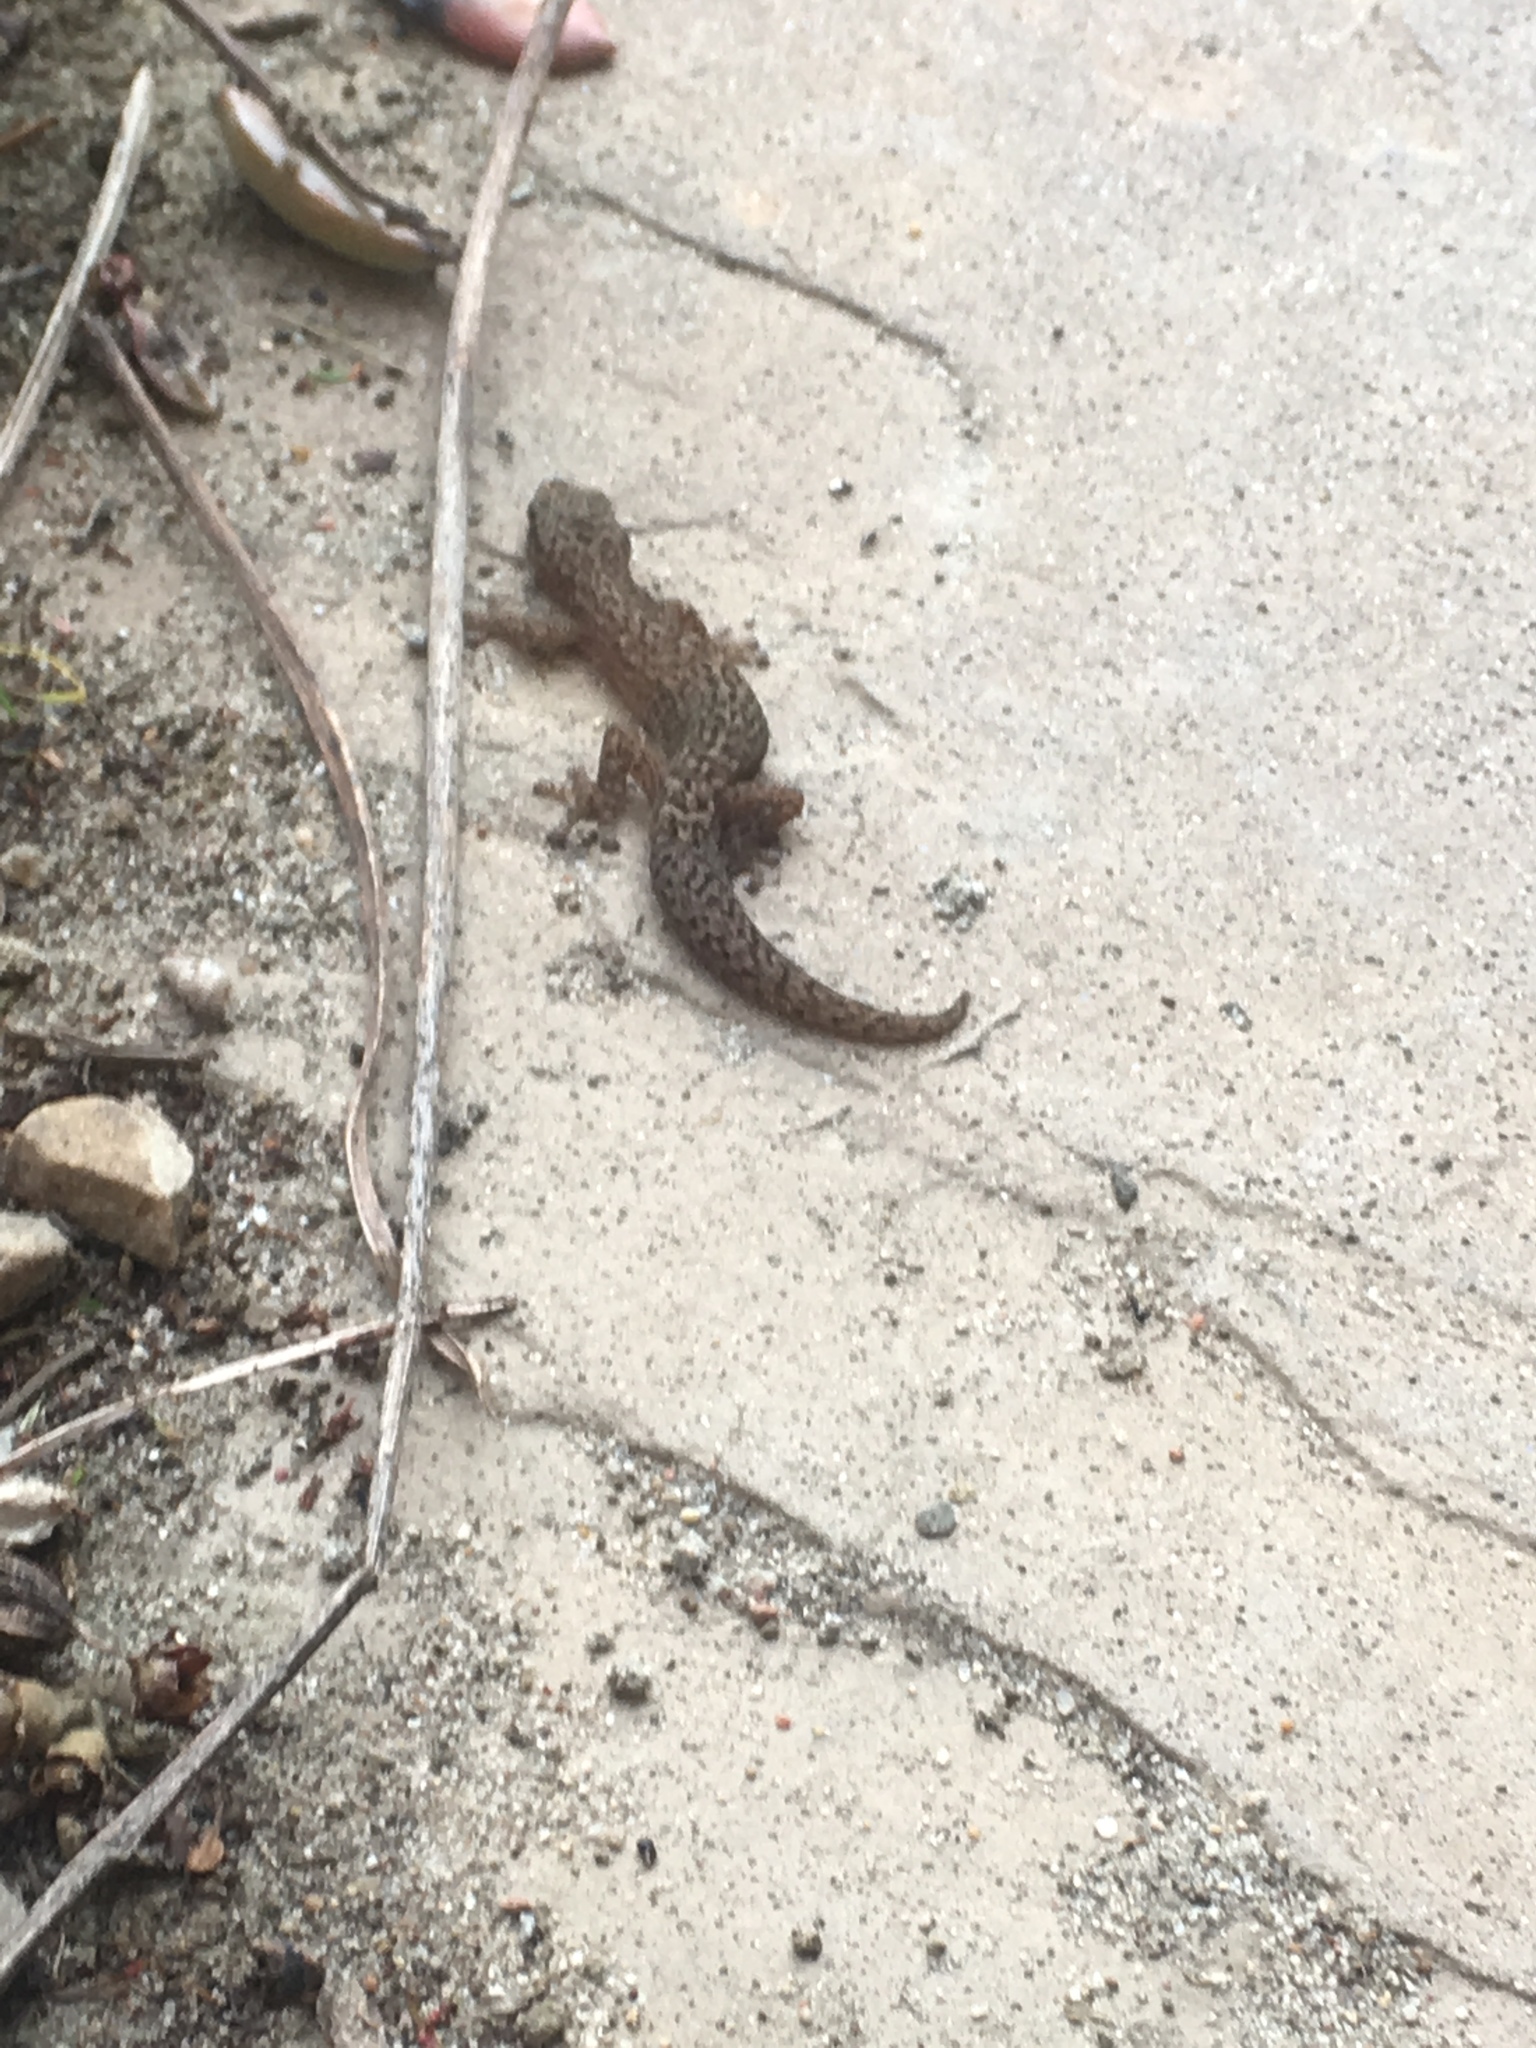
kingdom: Animalia
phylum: Chordata
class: Squamata
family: Gekkonidae
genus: Afrogecko
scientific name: Afrogecko porphyreus
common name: Marbled leaf-toed gecko
